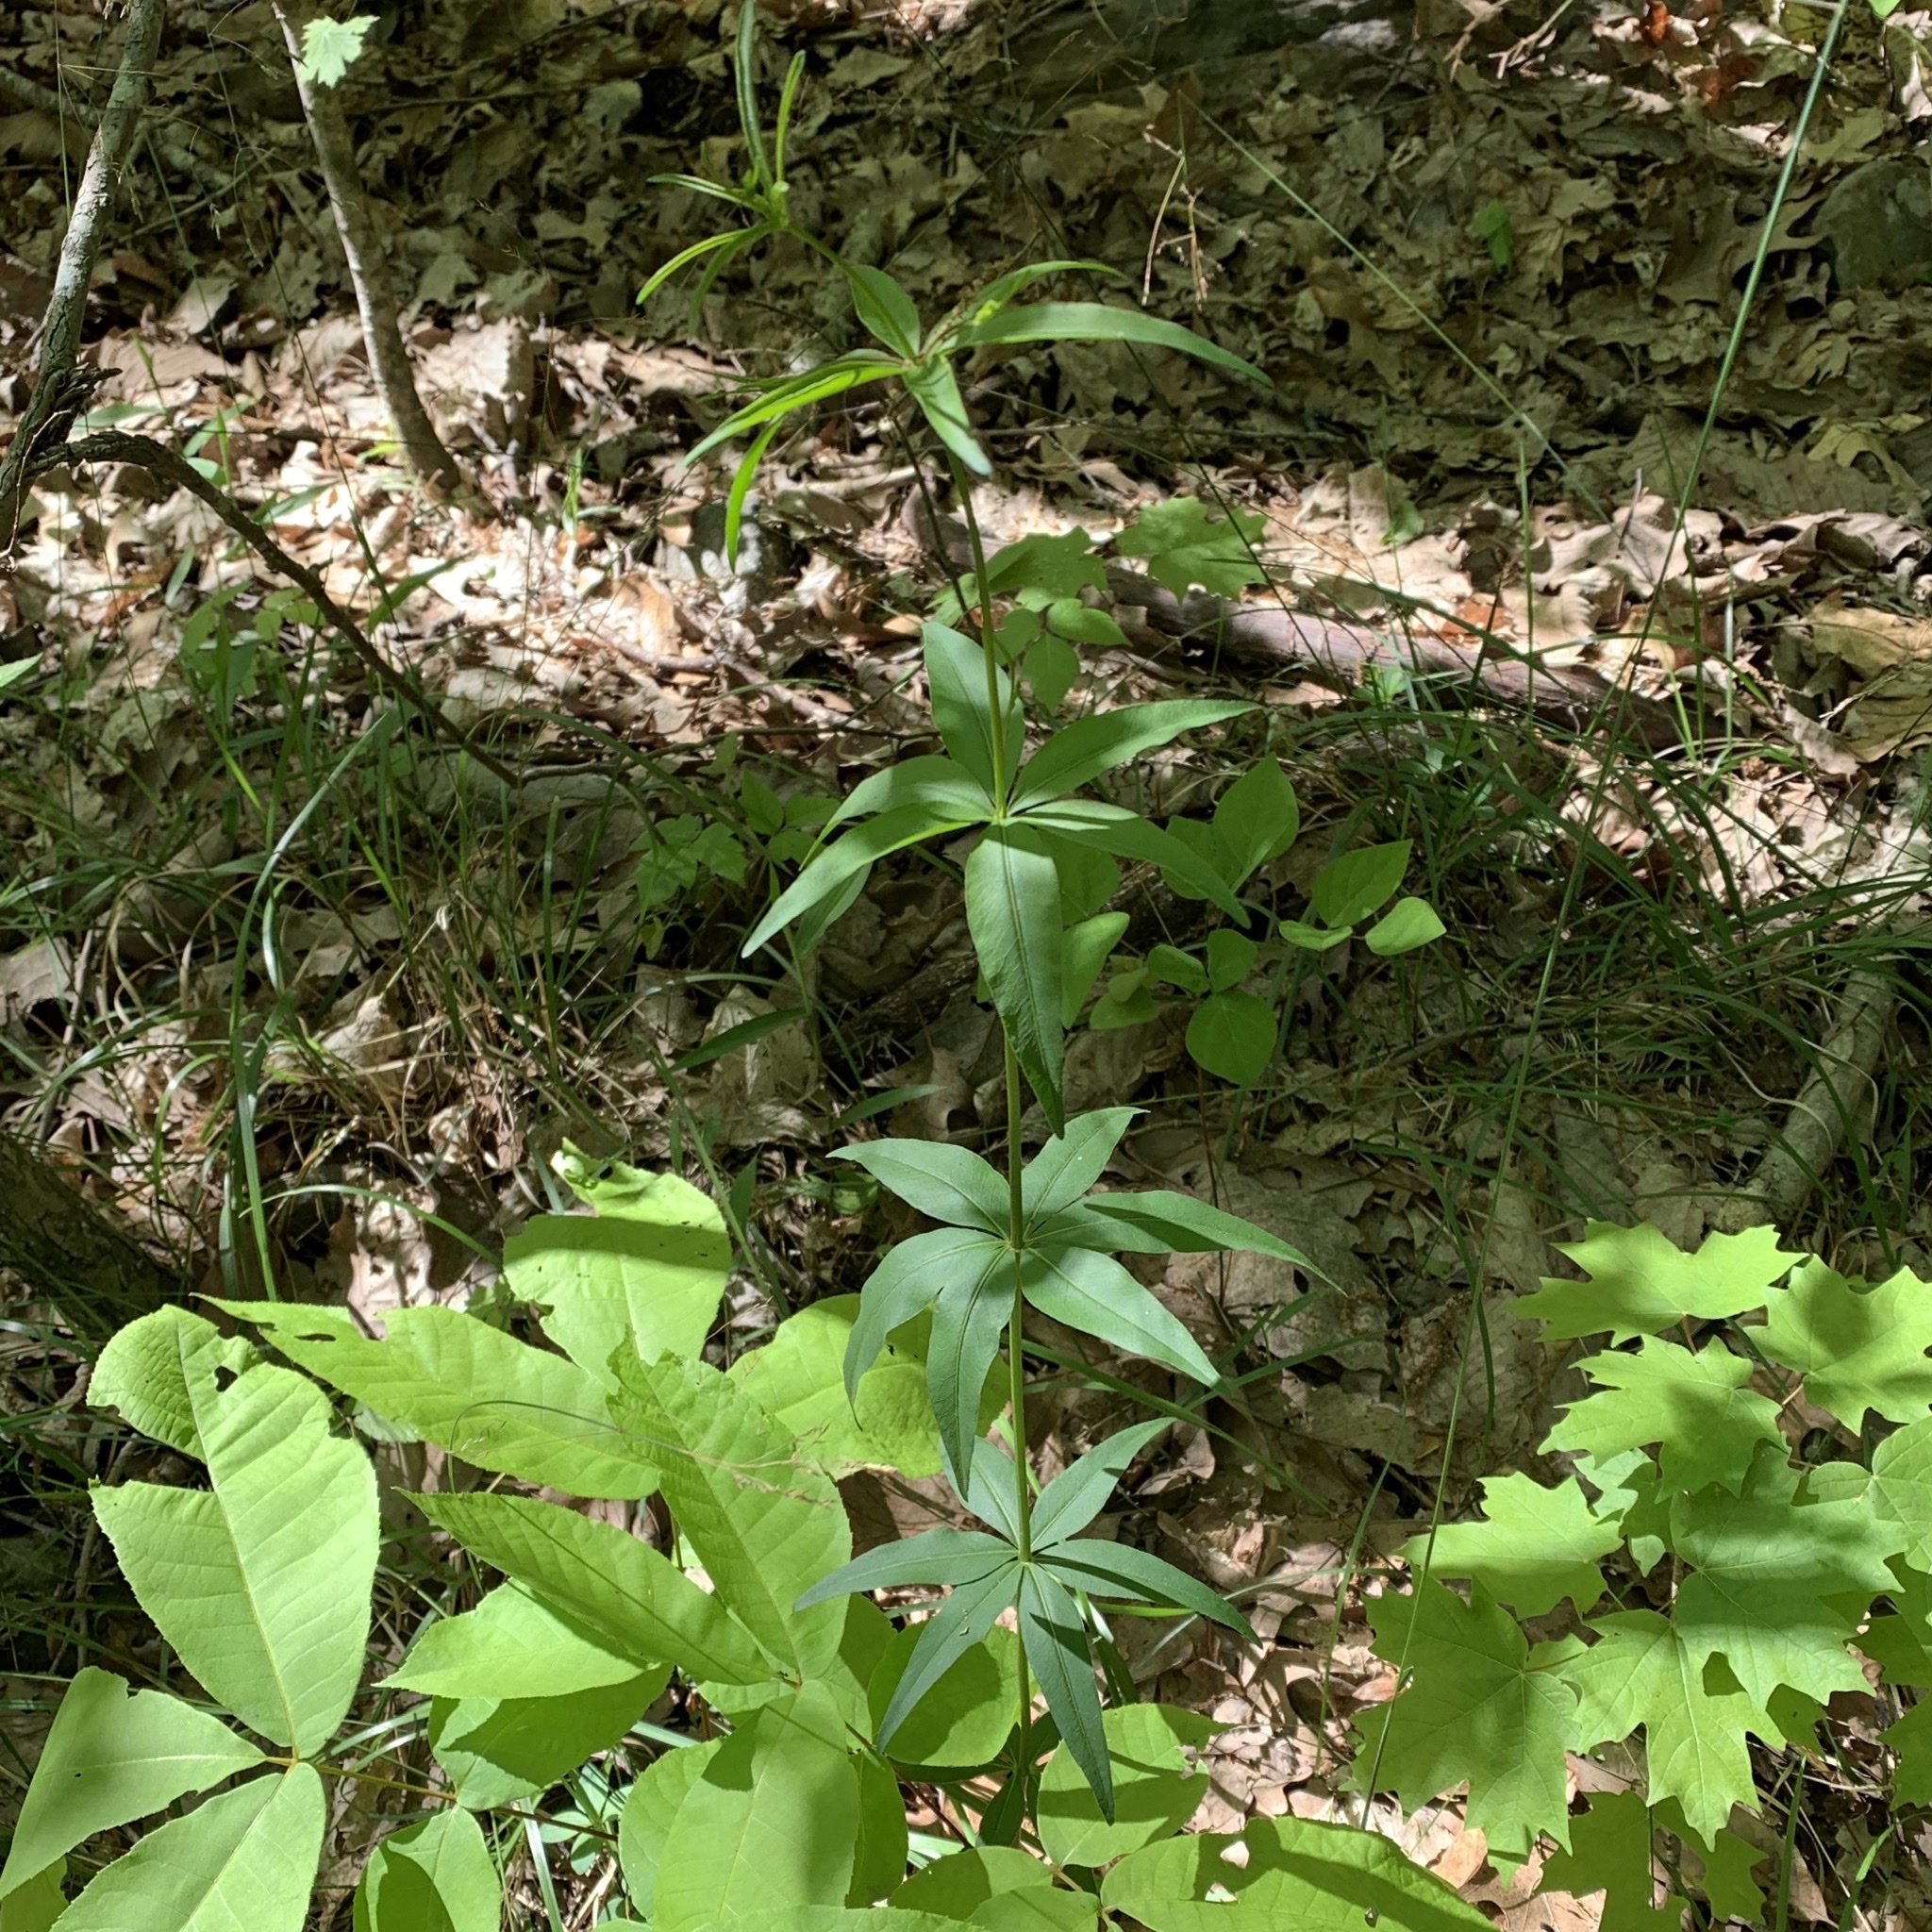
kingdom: Plantae
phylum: Tracheophyta
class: Magnoliopsida
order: Asterales
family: Asteraceae
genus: Coreopsis
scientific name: Coreopsis major
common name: Forest tickseed
